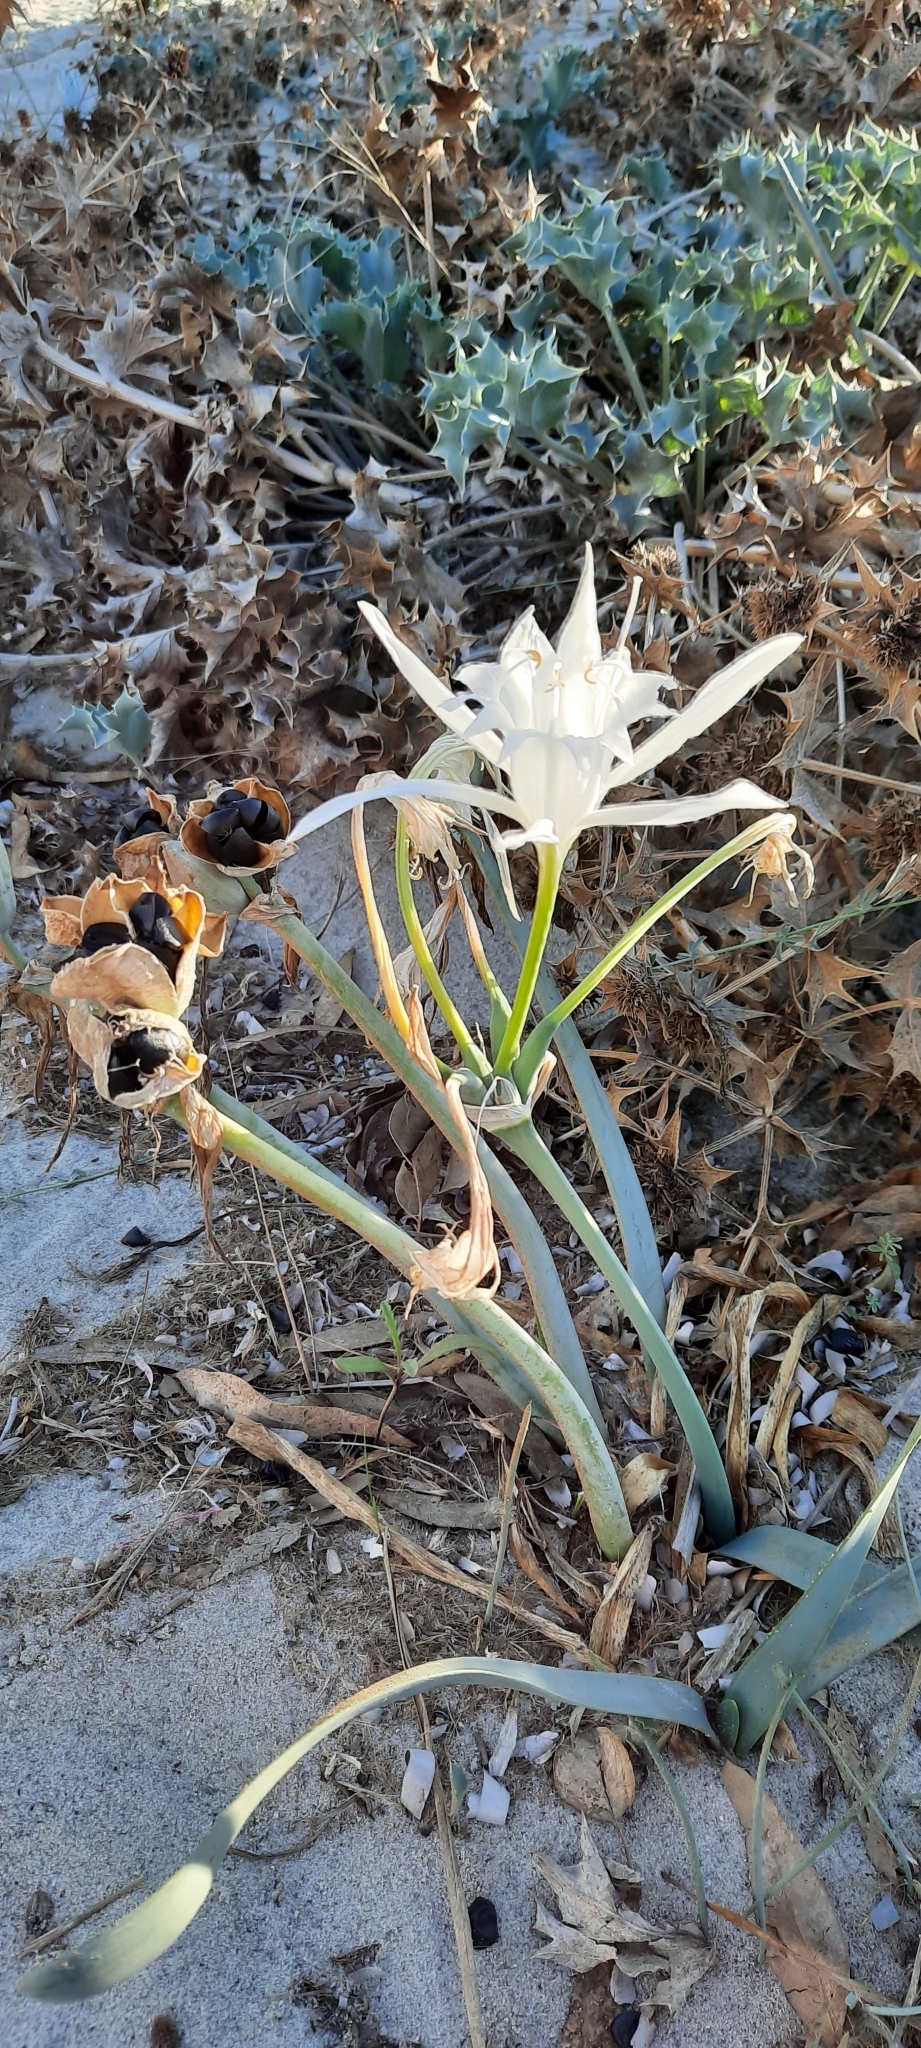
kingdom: Plantae
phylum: Tracheophyta
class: Liliopsida
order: Asparagales
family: Amaryllidaceae
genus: Pancratium
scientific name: Pancratium maritimum
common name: Sea-daffodil
